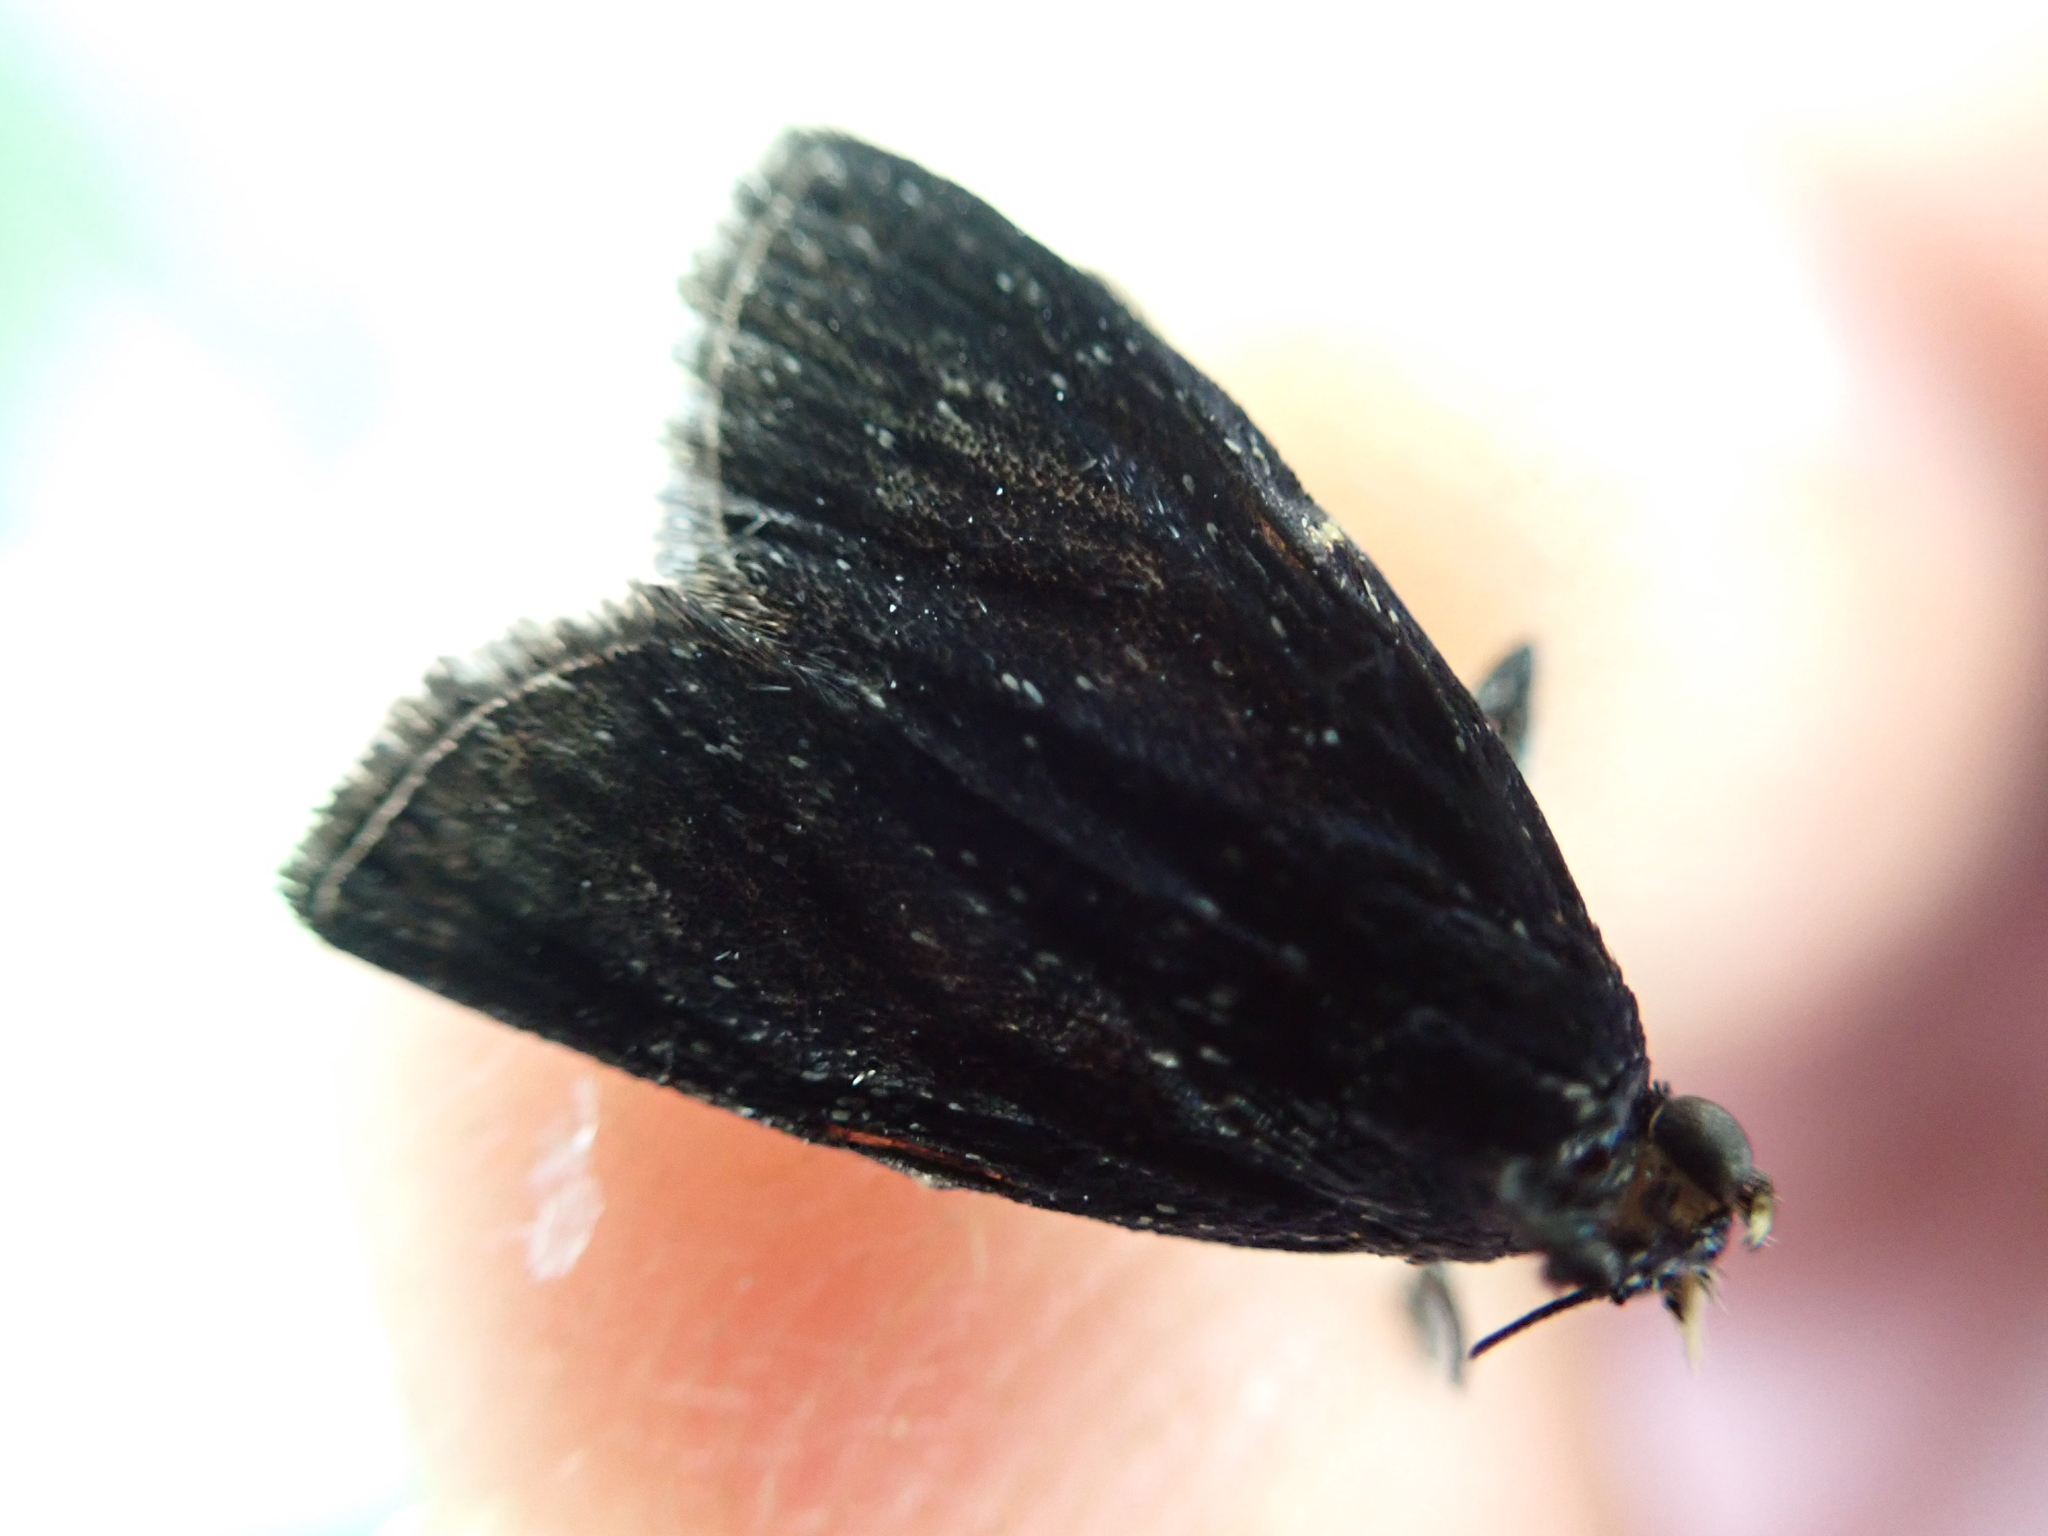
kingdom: Animalia
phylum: Arthropoda
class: Insecta
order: Lepidoptera
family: Pyralidae
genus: Stericta
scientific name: Stericta carbonalis
